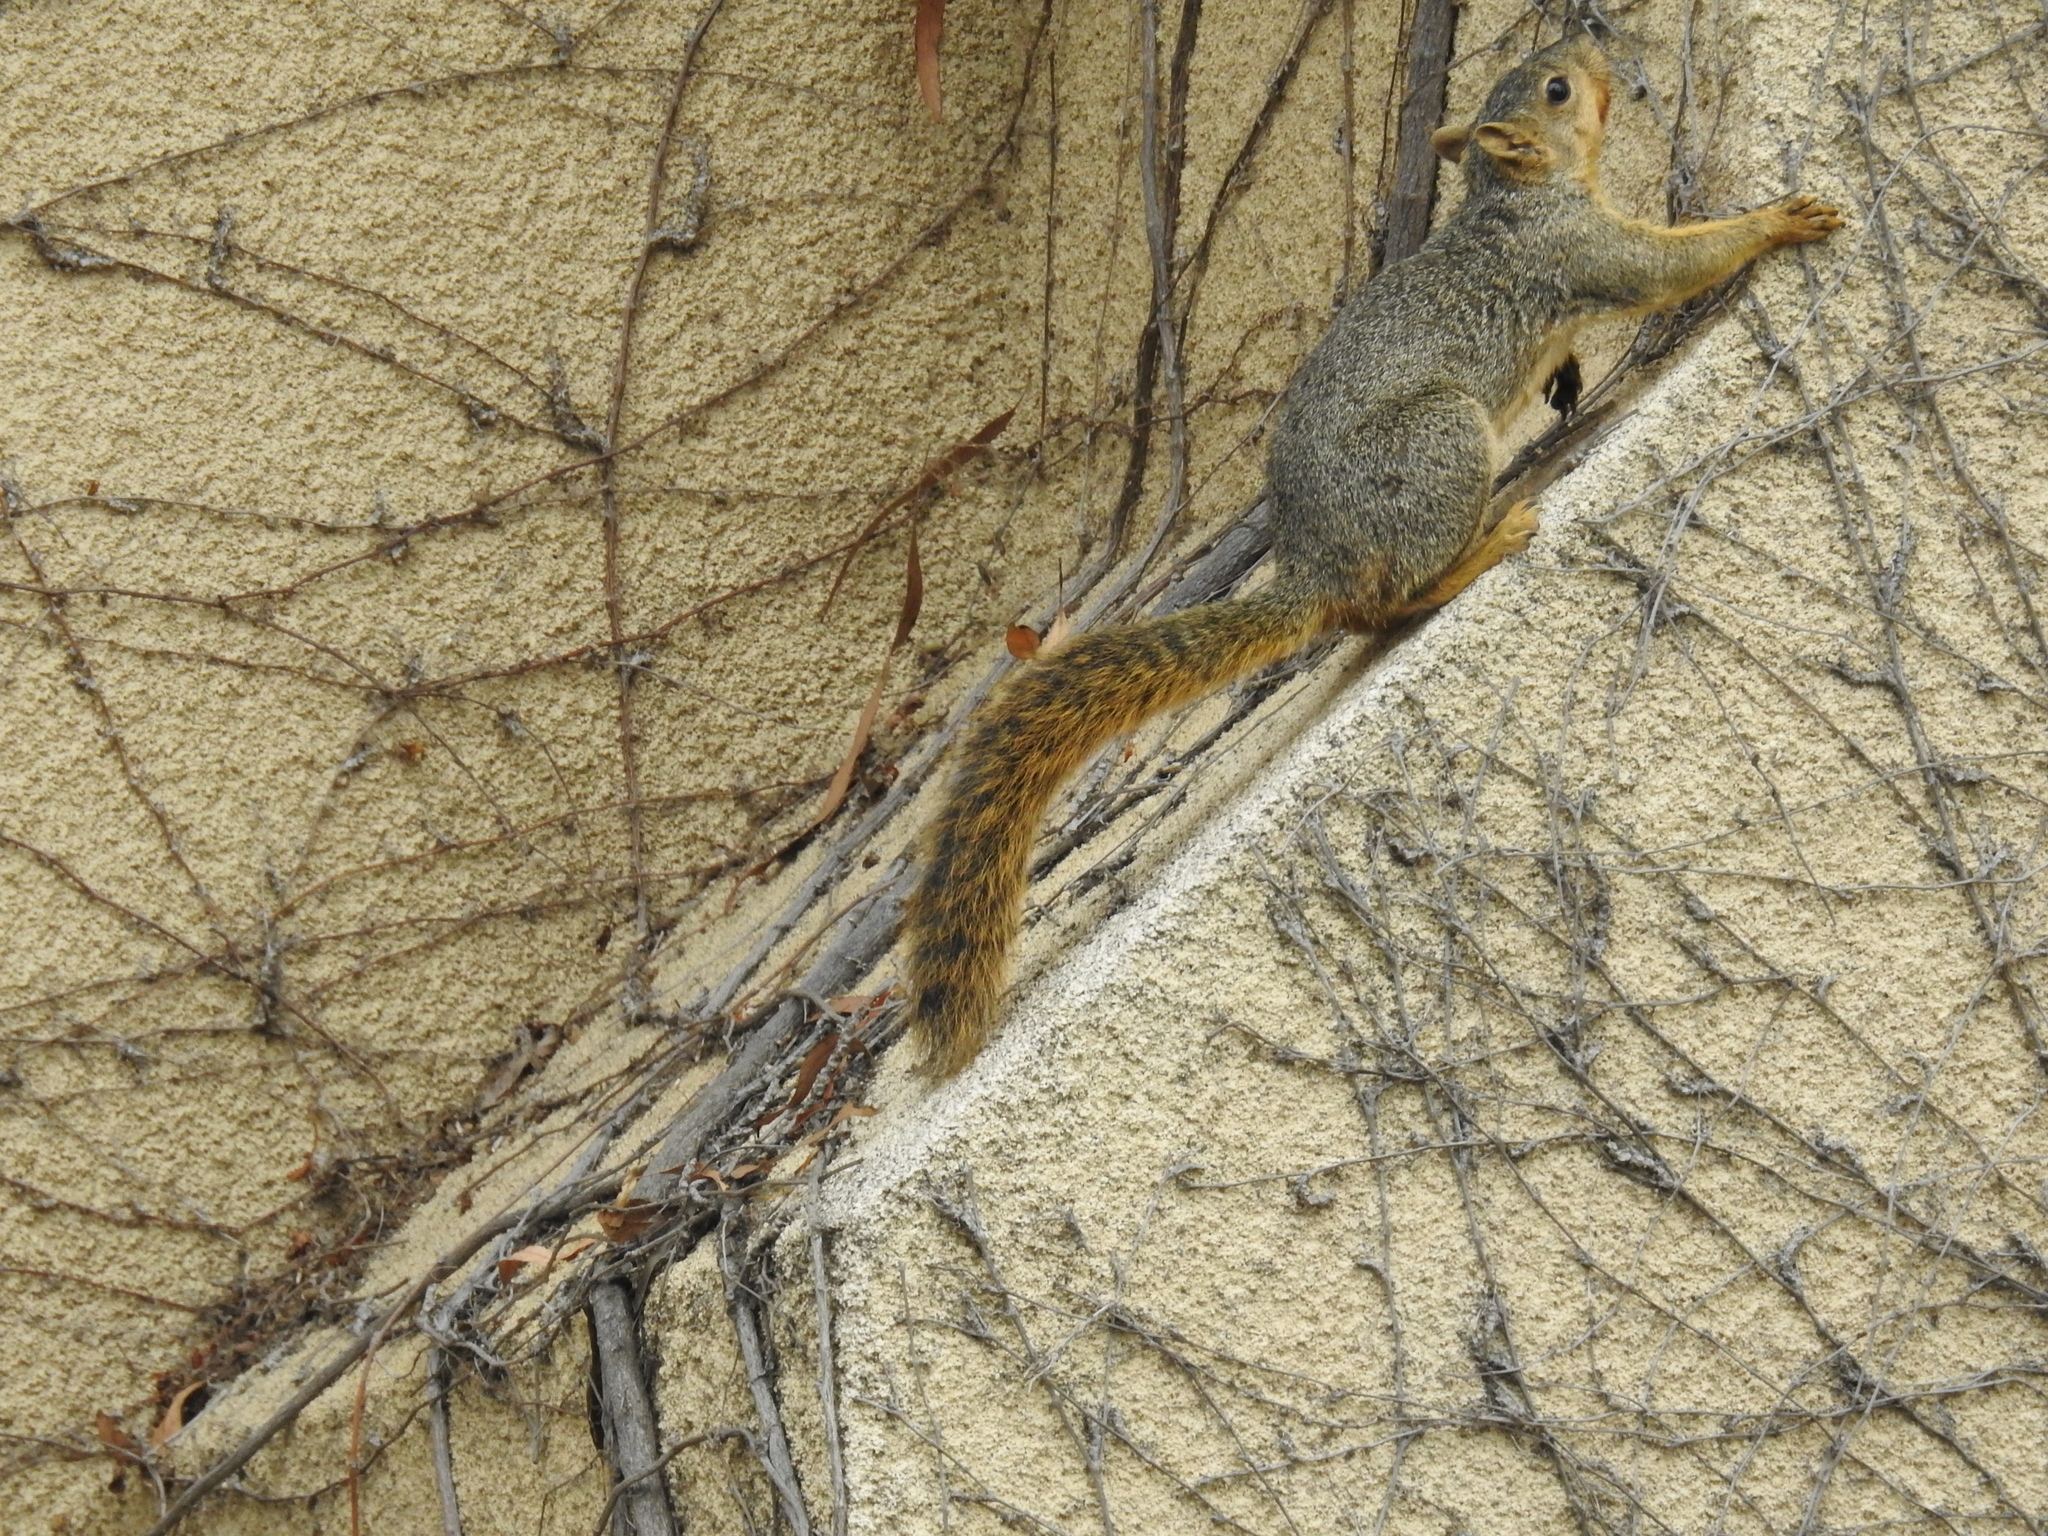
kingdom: Animalia
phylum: Chordata
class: Mammalia
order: Rodentia
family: Sciuridae
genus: Sciurus
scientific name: Sciurus niger
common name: Fox squirrel
